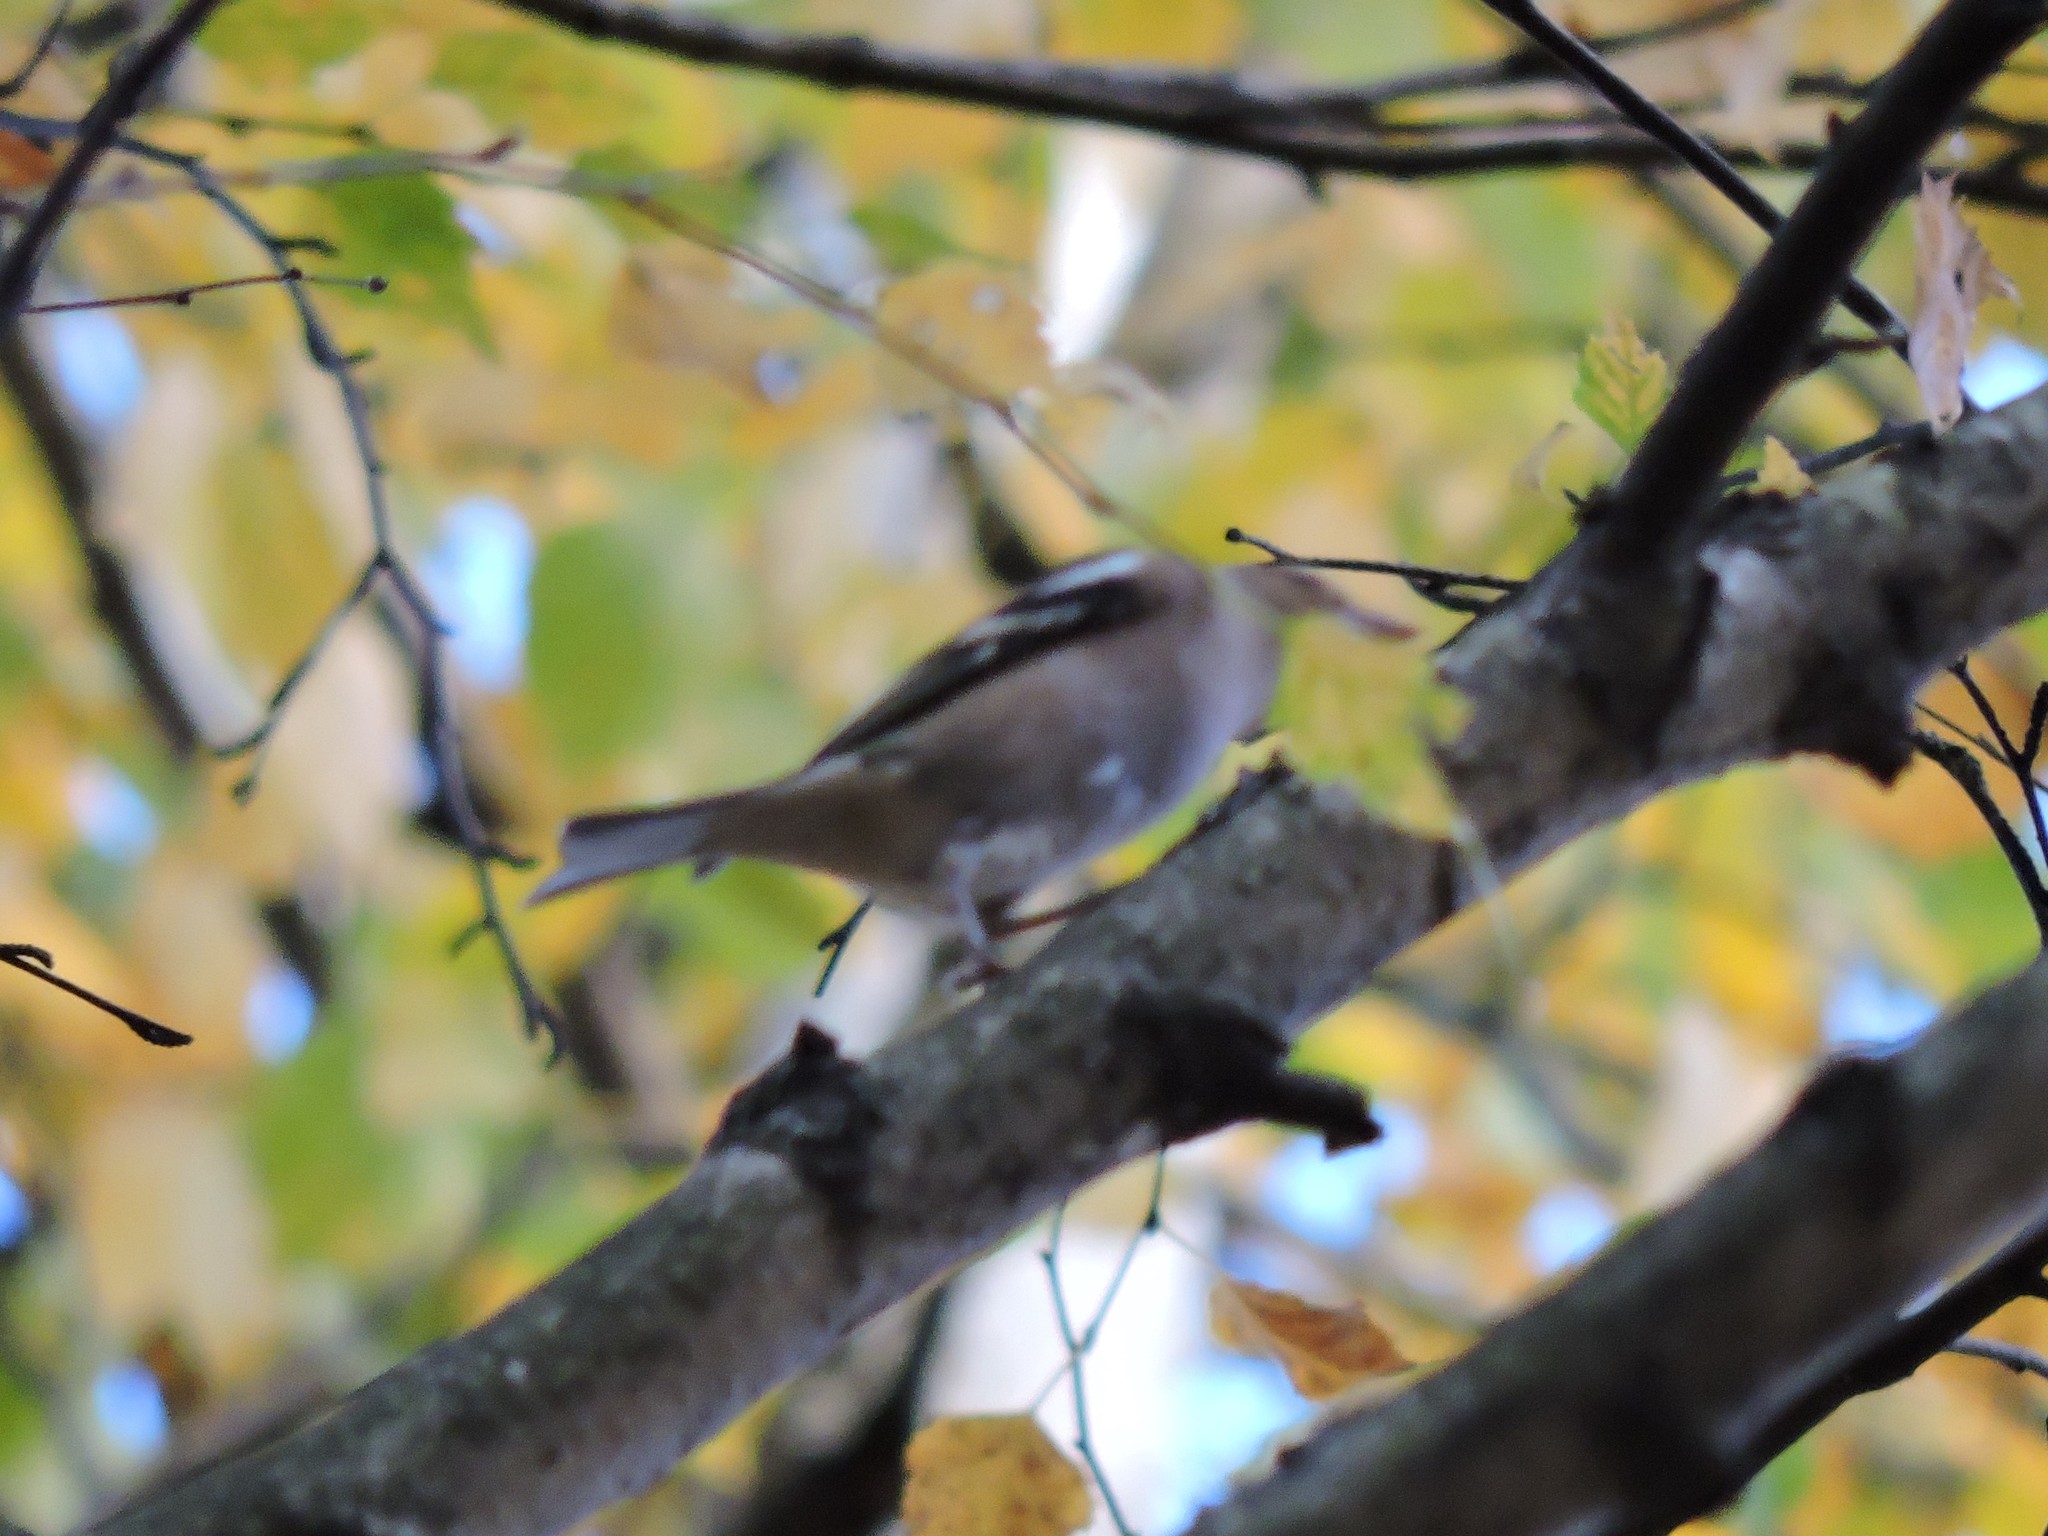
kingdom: Animalia
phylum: Chordata
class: Aves
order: Passeriformes
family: Fringillidae
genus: Fringilla
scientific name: Fringilla coelebs
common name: Common chaffinch
